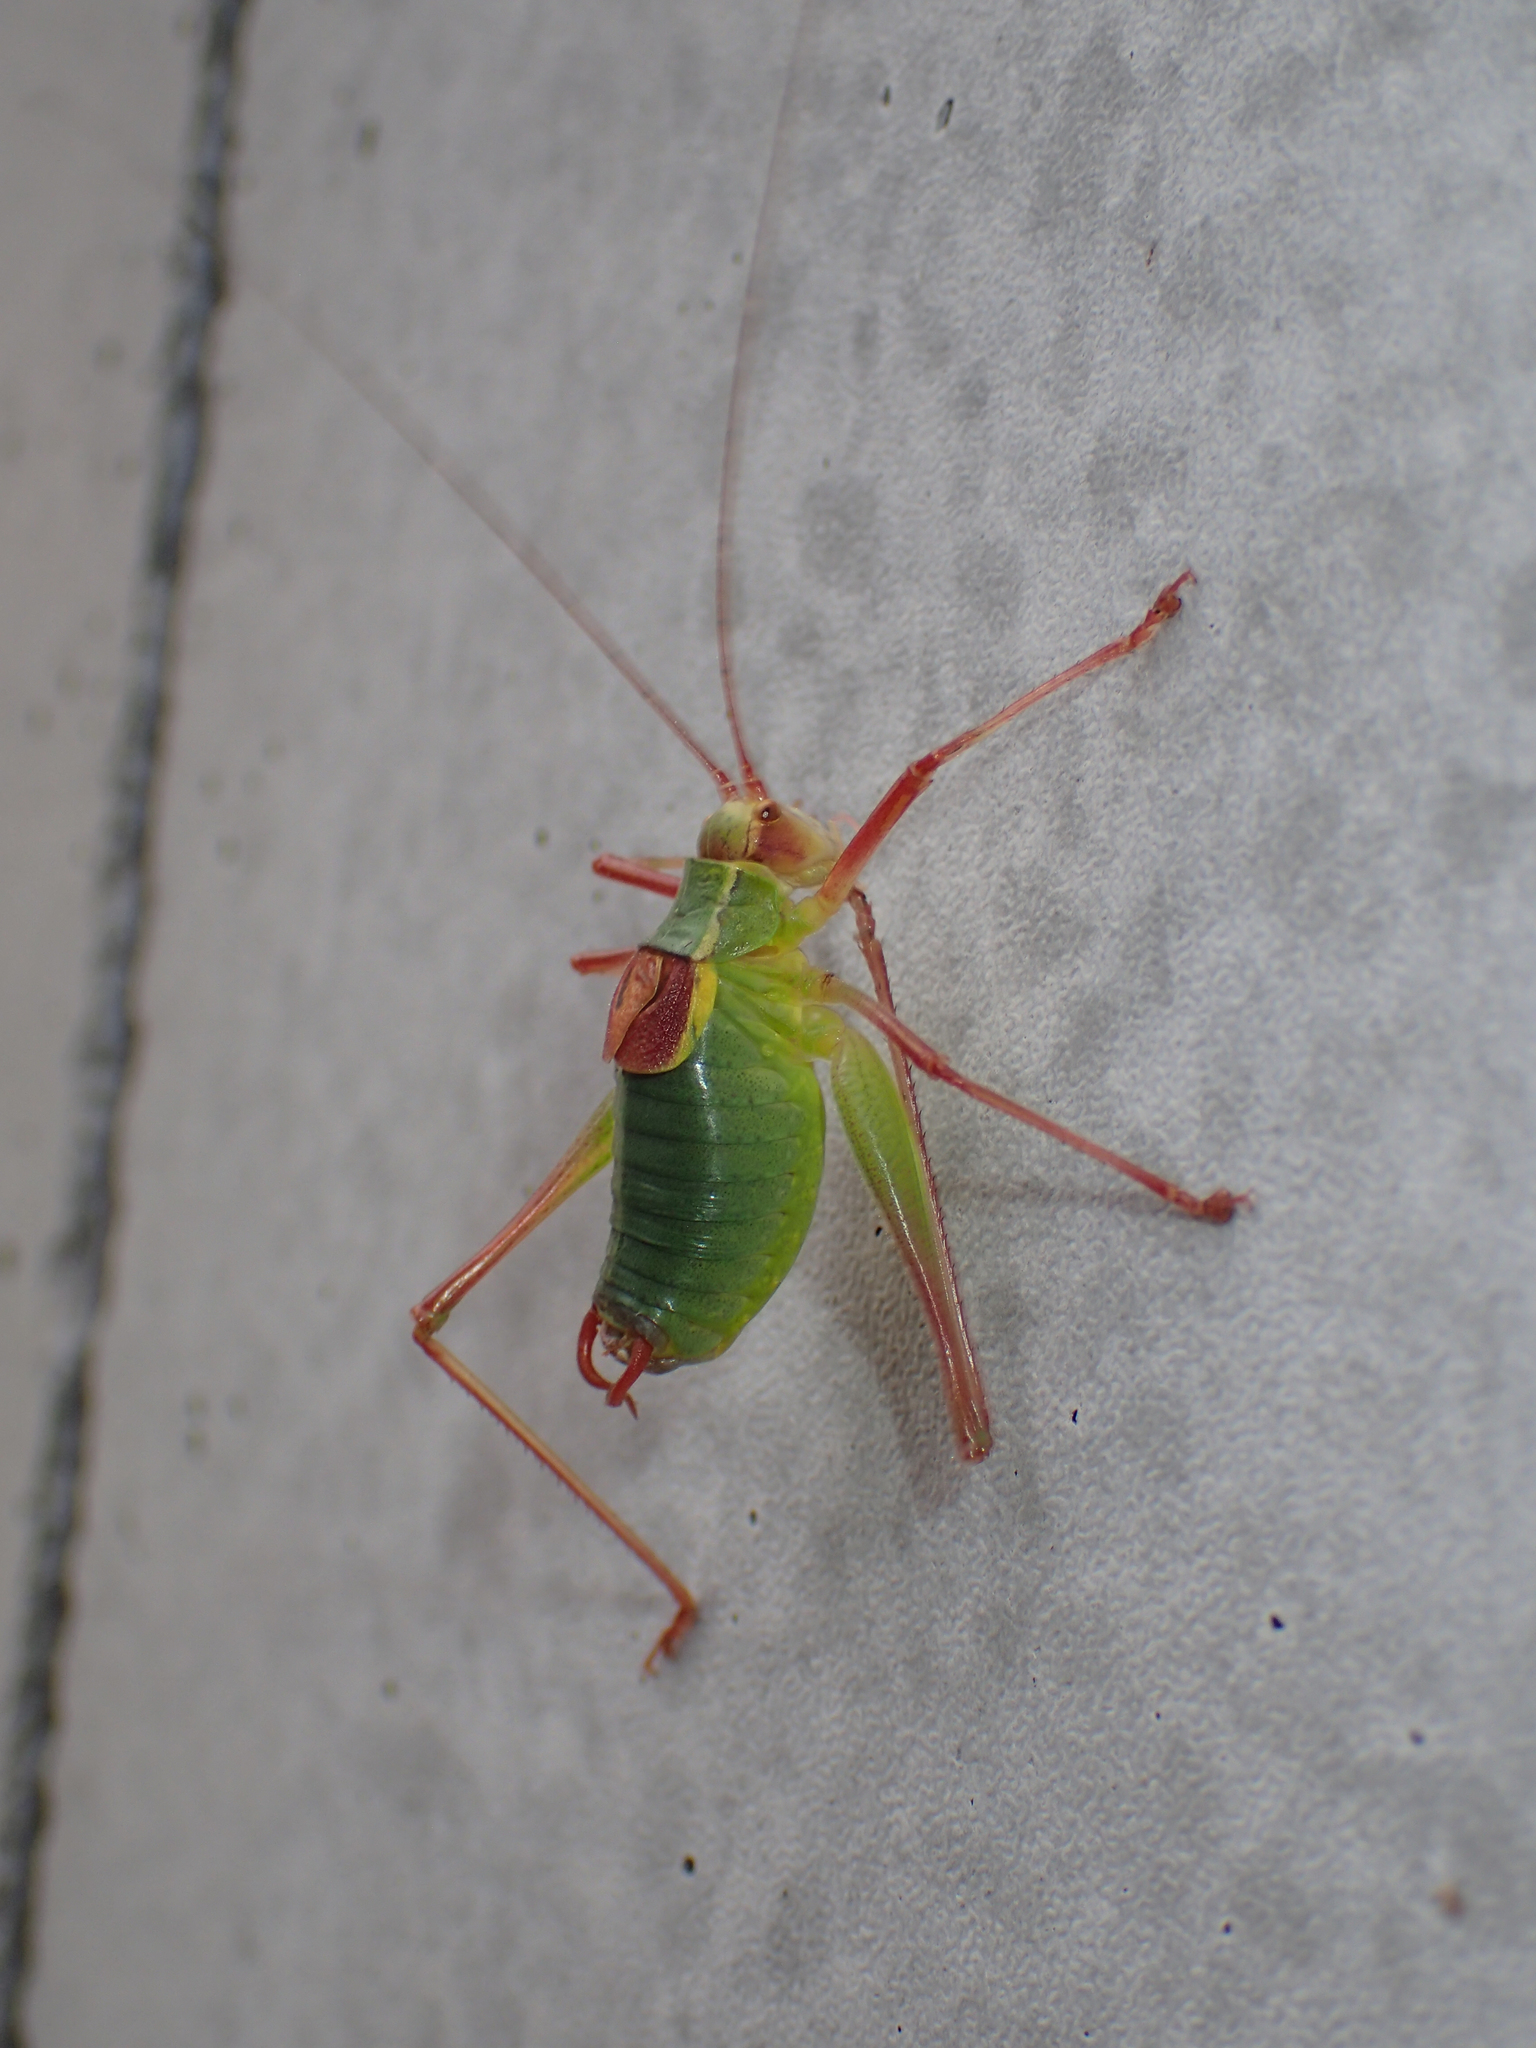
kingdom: Animalia
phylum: Arthropoda
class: Insecta
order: Orthoptera
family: Tettigoniidae
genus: Barbitistes
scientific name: Barbitistes serricauda
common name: Saw-tailed bush-cricket
